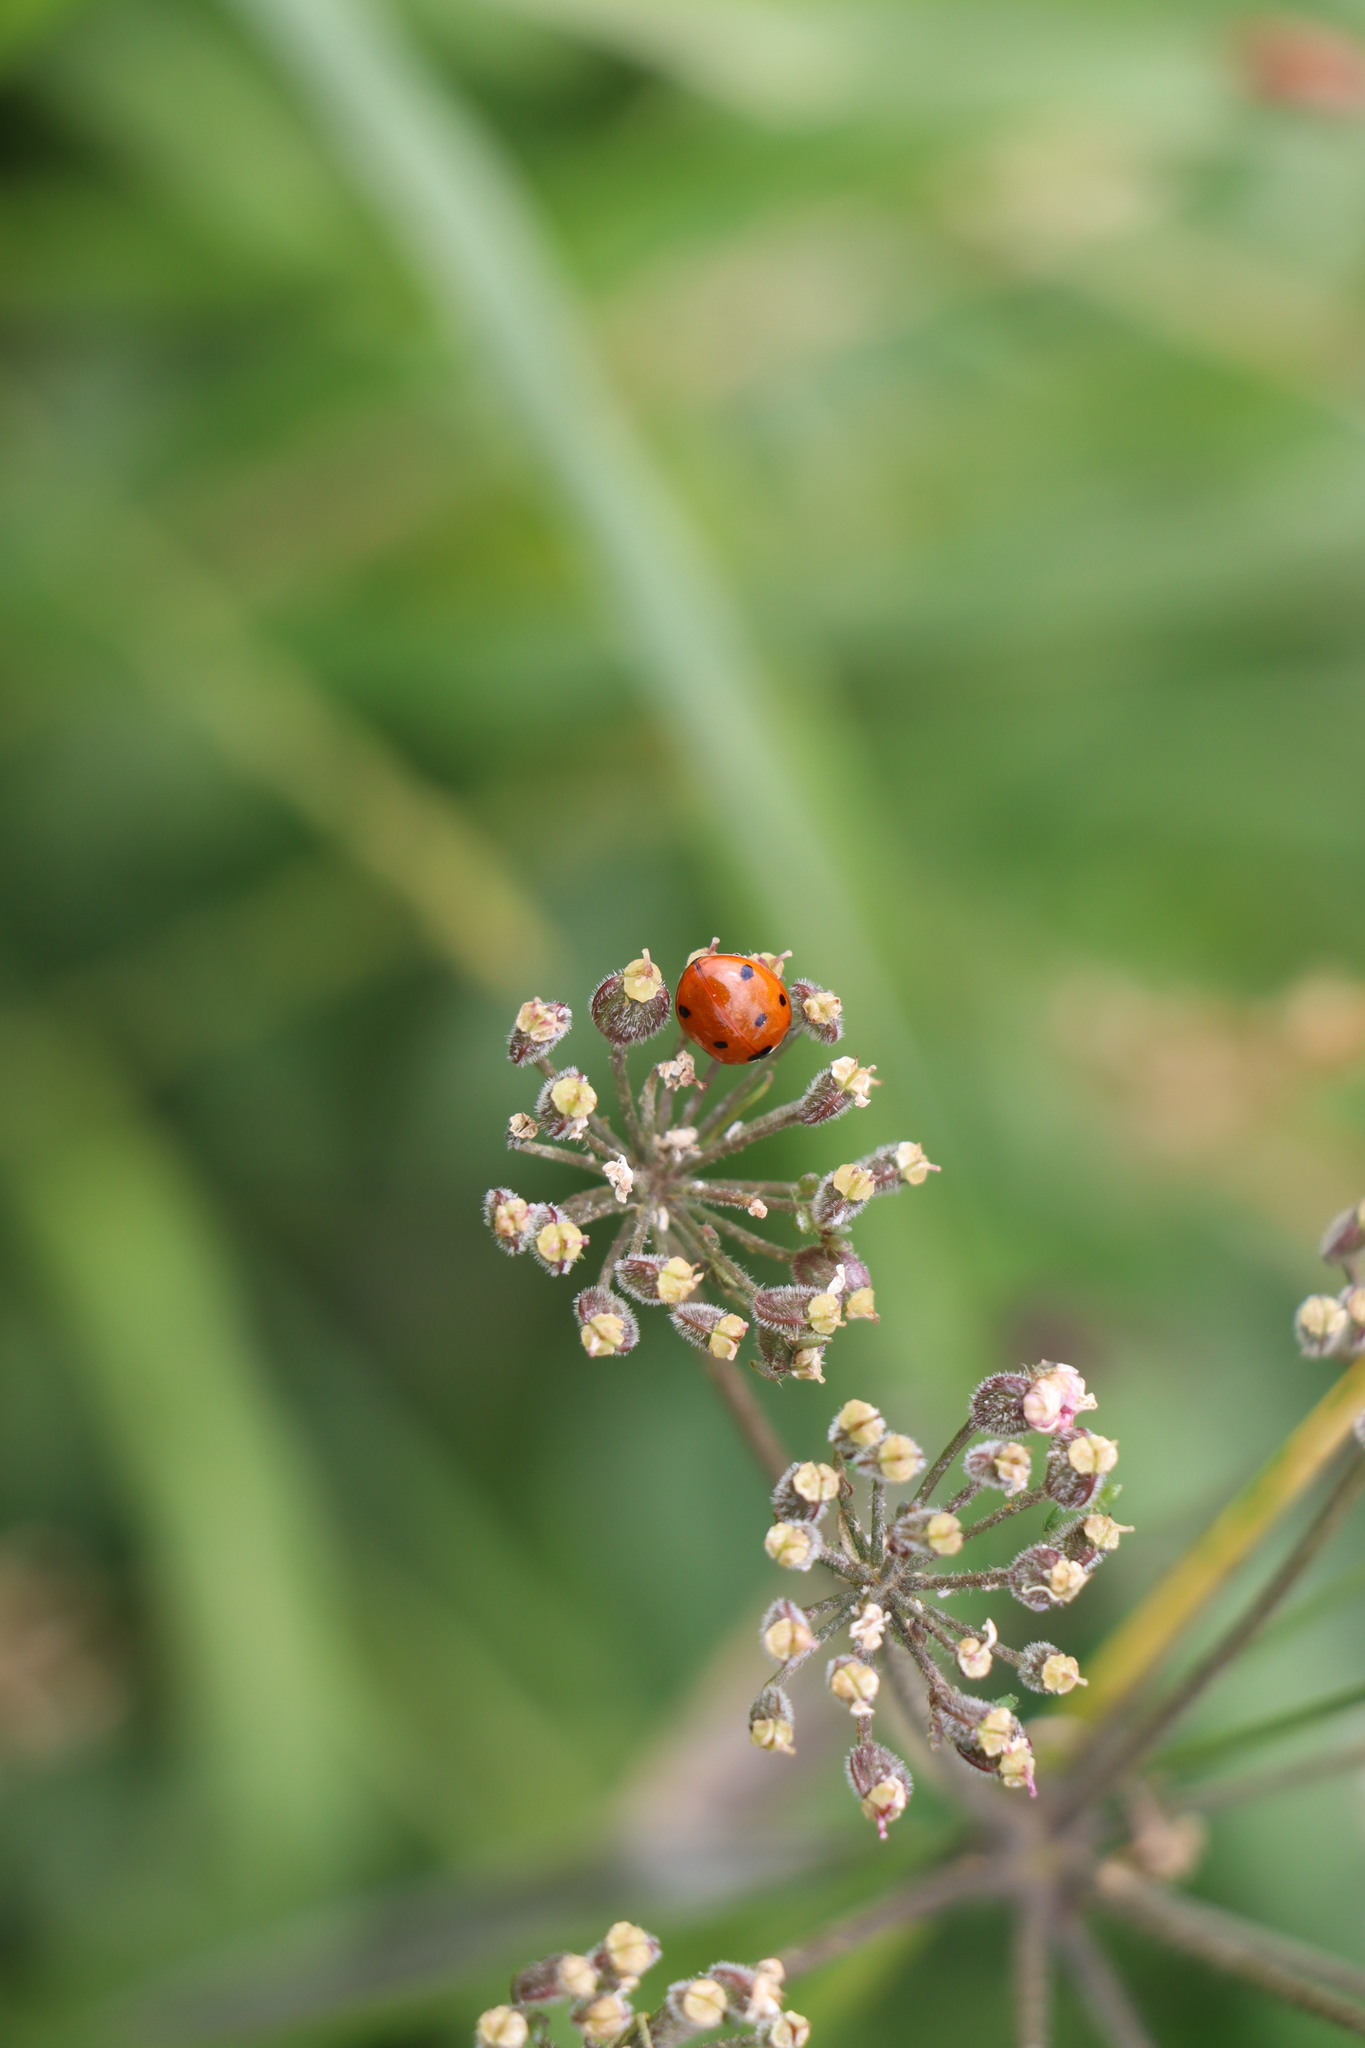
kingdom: Animalia
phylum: Arthropoda
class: Insecta
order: Coleoptera
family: Coccinellidae
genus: Coccinella
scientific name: Coccinella septempunctata
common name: Sevenspotted lady beetle
